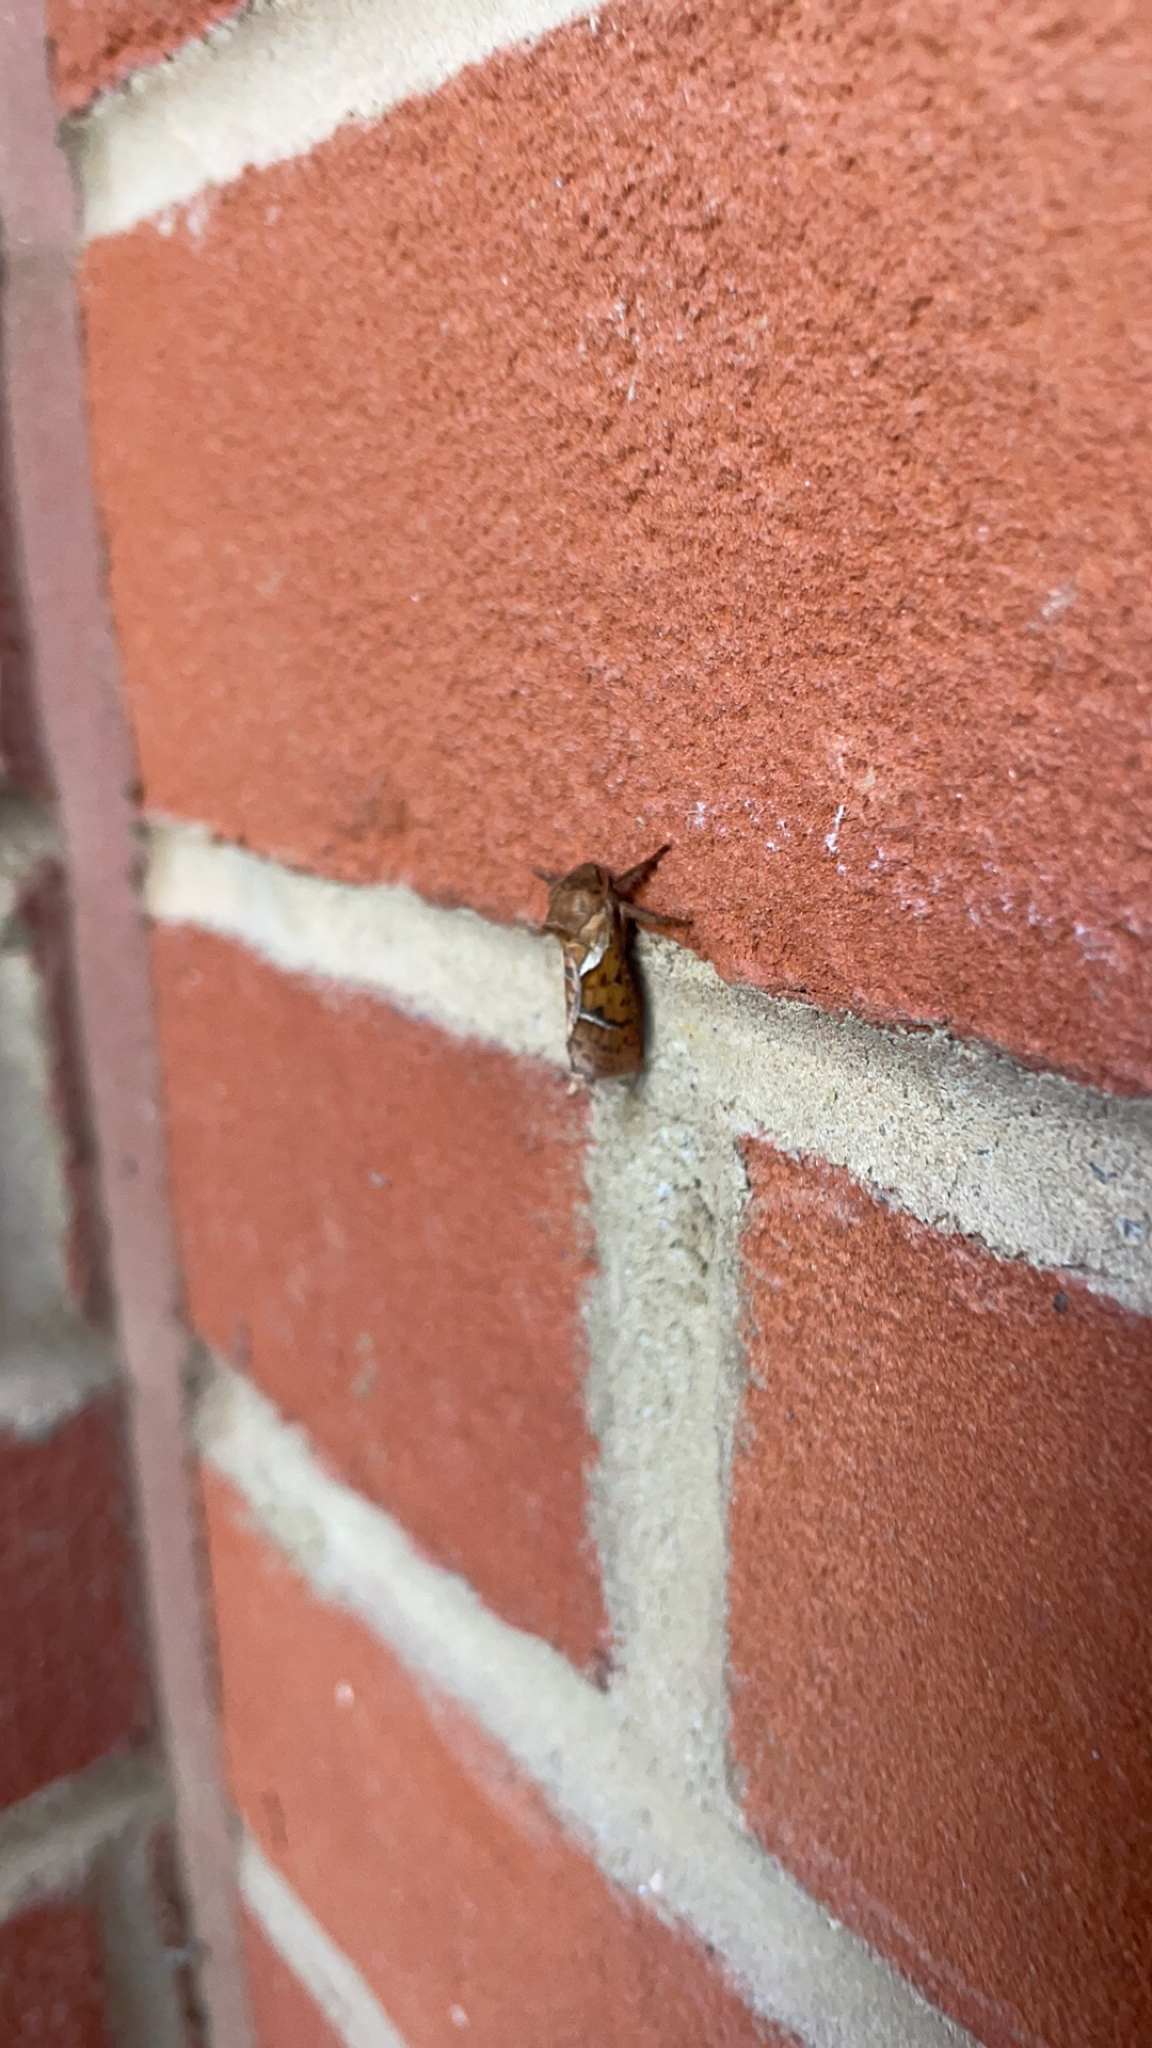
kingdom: Animalia
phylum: Arthropoda
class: Insecta
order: Lepidoptera
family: Hepialidae
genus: Triodia
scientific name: Triodia sylvina
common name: Orange swift
